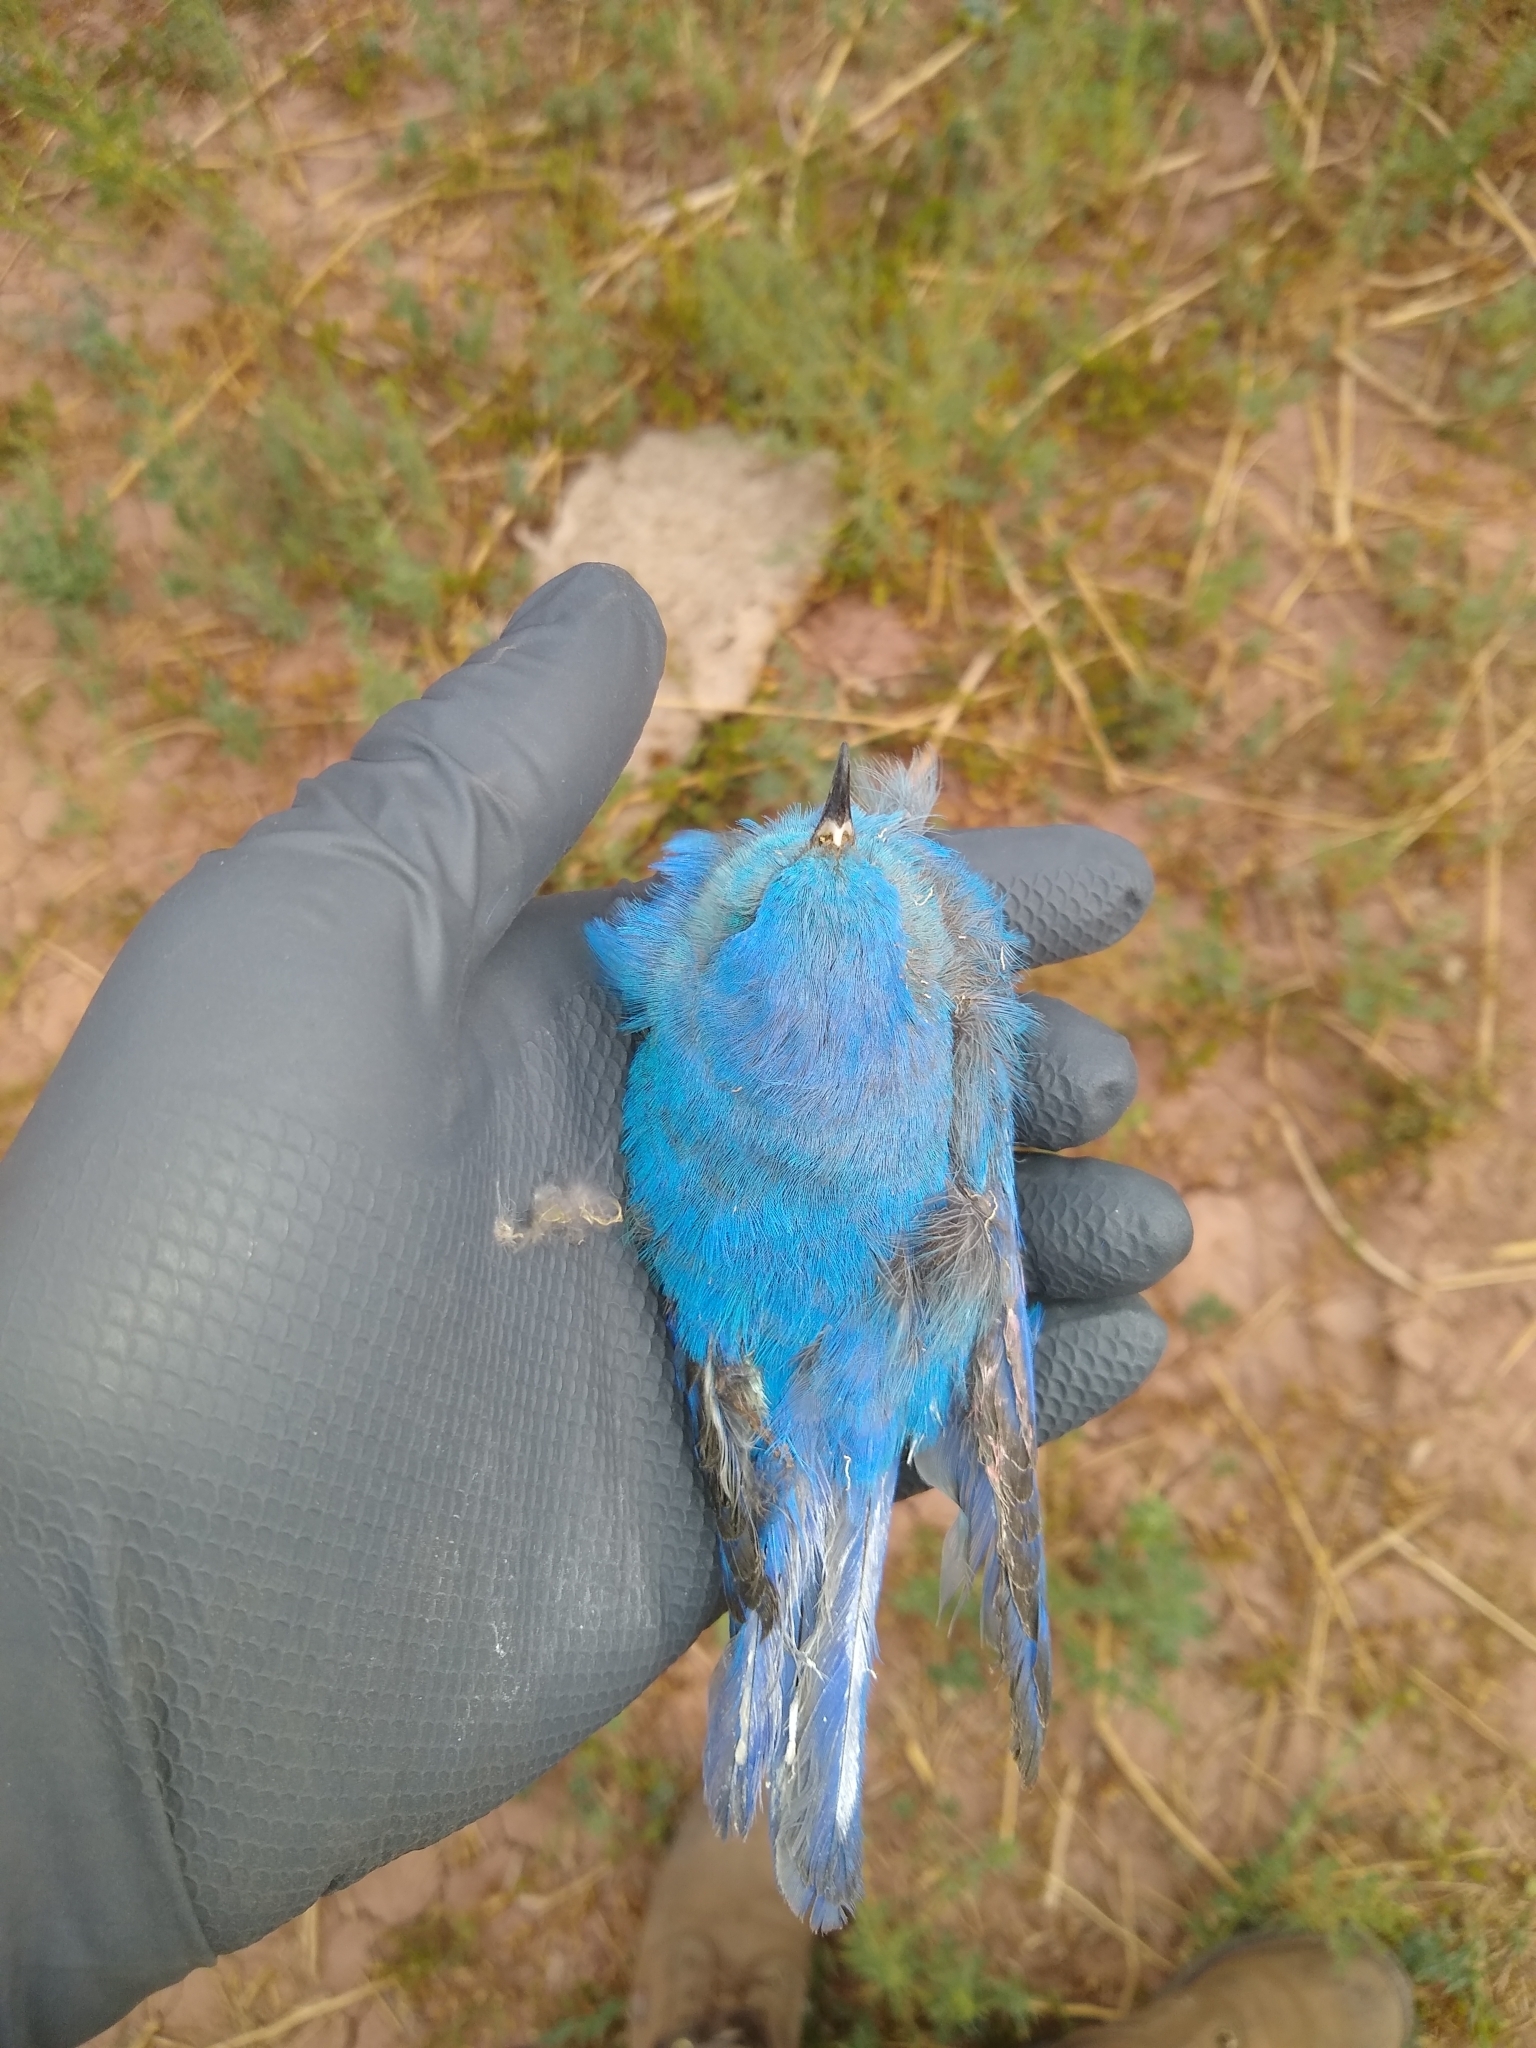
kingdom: Animalia
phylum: Chordata
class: Aves
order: Passeriformes
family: Turdidae
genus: Sialia
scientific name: Sialia currucoides
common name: Mountain bluebird
